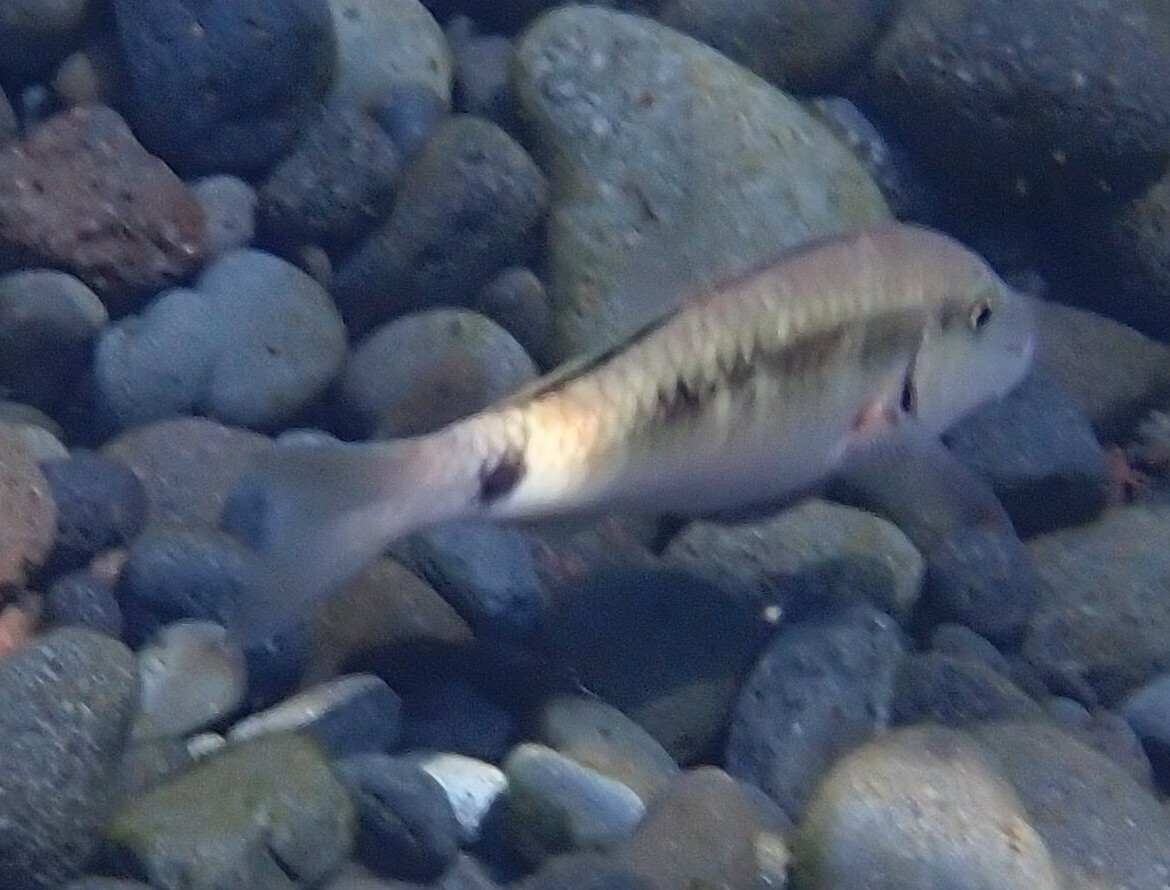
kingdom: Animalia
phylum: Chordata
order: Perciformes
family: Mullidae
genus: Parupeneus
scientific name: Parupeneus macronemus
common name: Long-barbel goatfish
